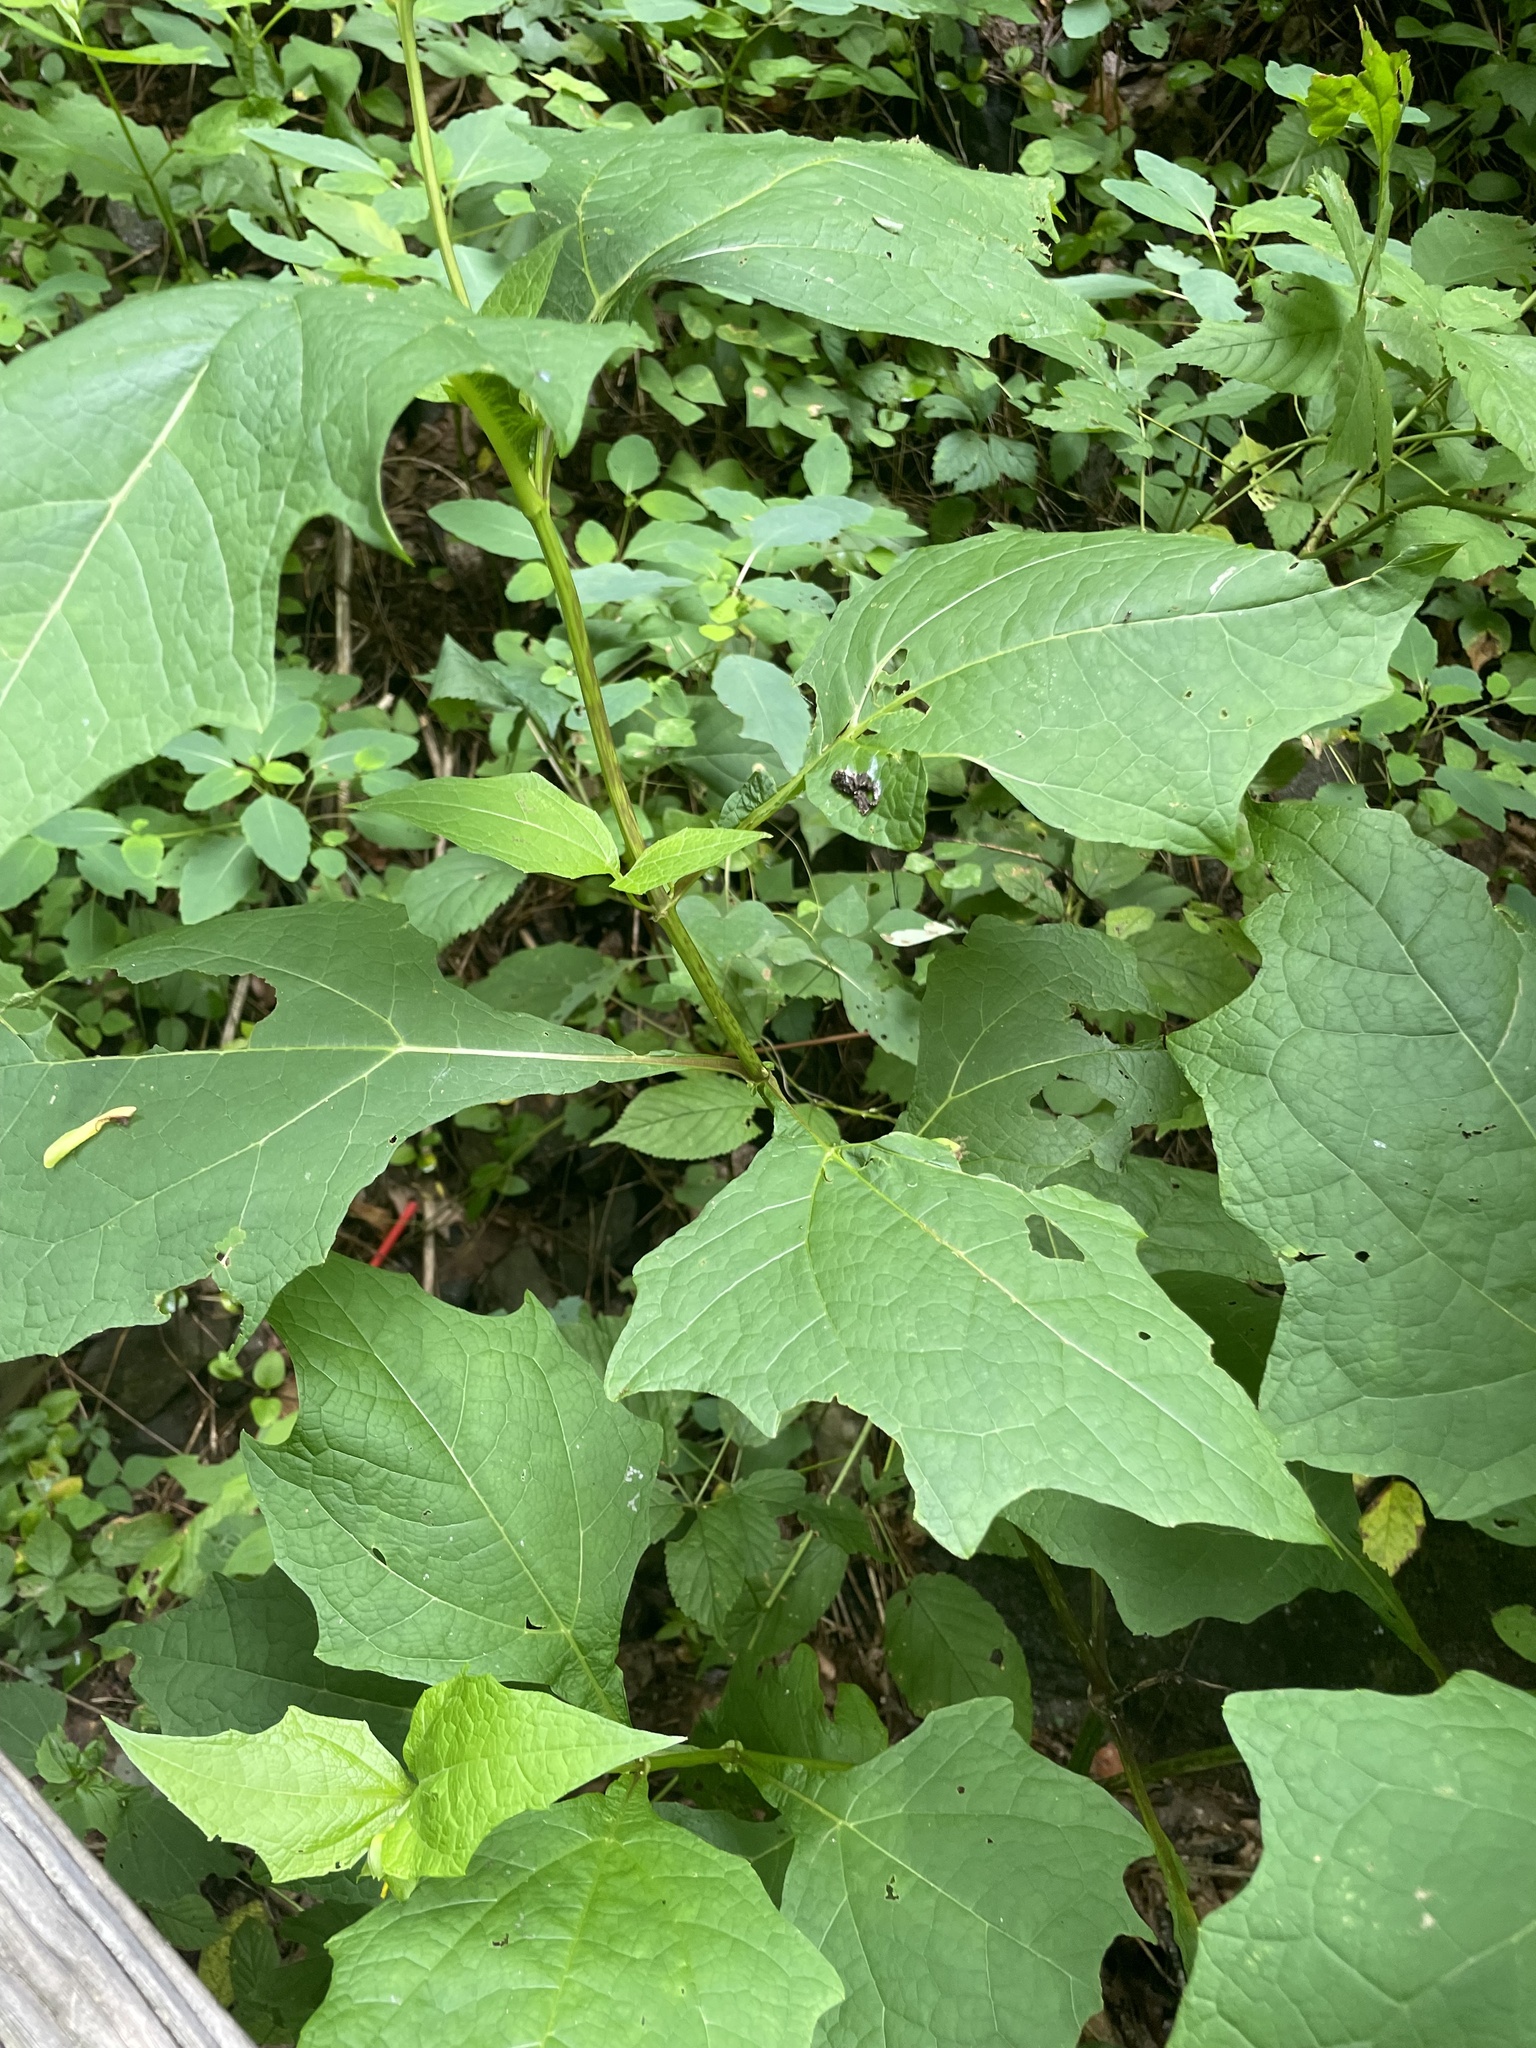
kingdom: Plantae
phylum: Tracheophyta
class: Magnoliopsida
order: Asterales
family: Asteraceae
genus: Smallanthus
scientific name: Smallanthus uvedalia
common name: Bear's-foot
